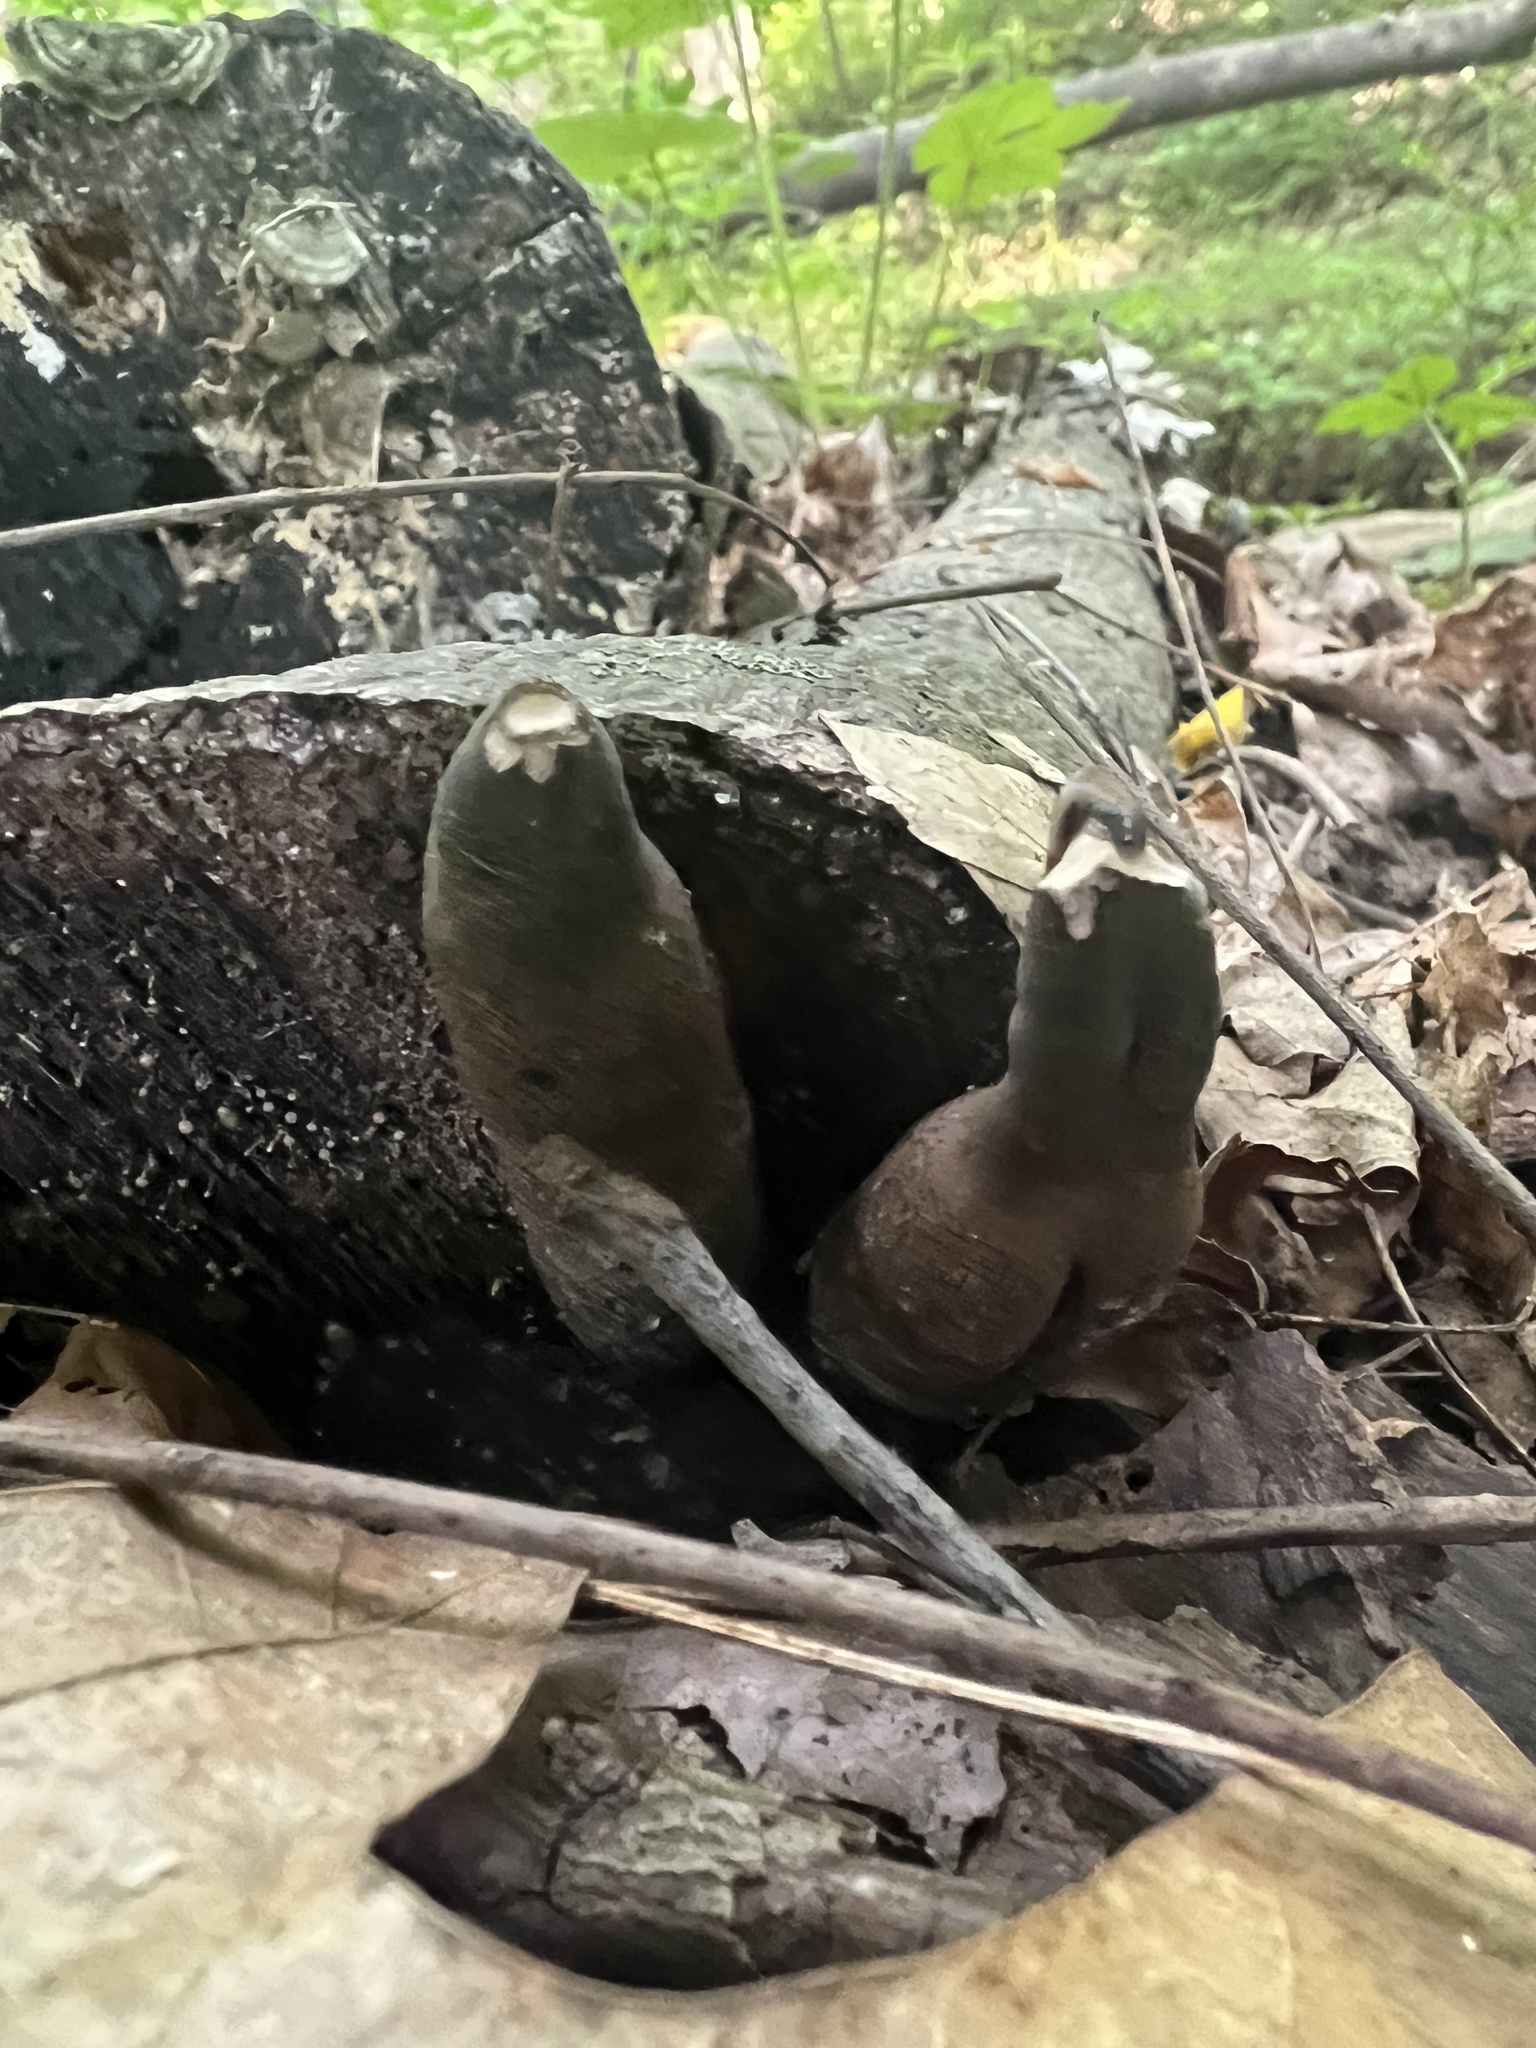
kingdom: Fungi
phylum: Ascomycota
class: Sordariomycetes
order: Xylariales
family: Xylariaceae
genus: Xylaria
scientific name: Xylaria polymorpha
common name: Dead man's fingers
